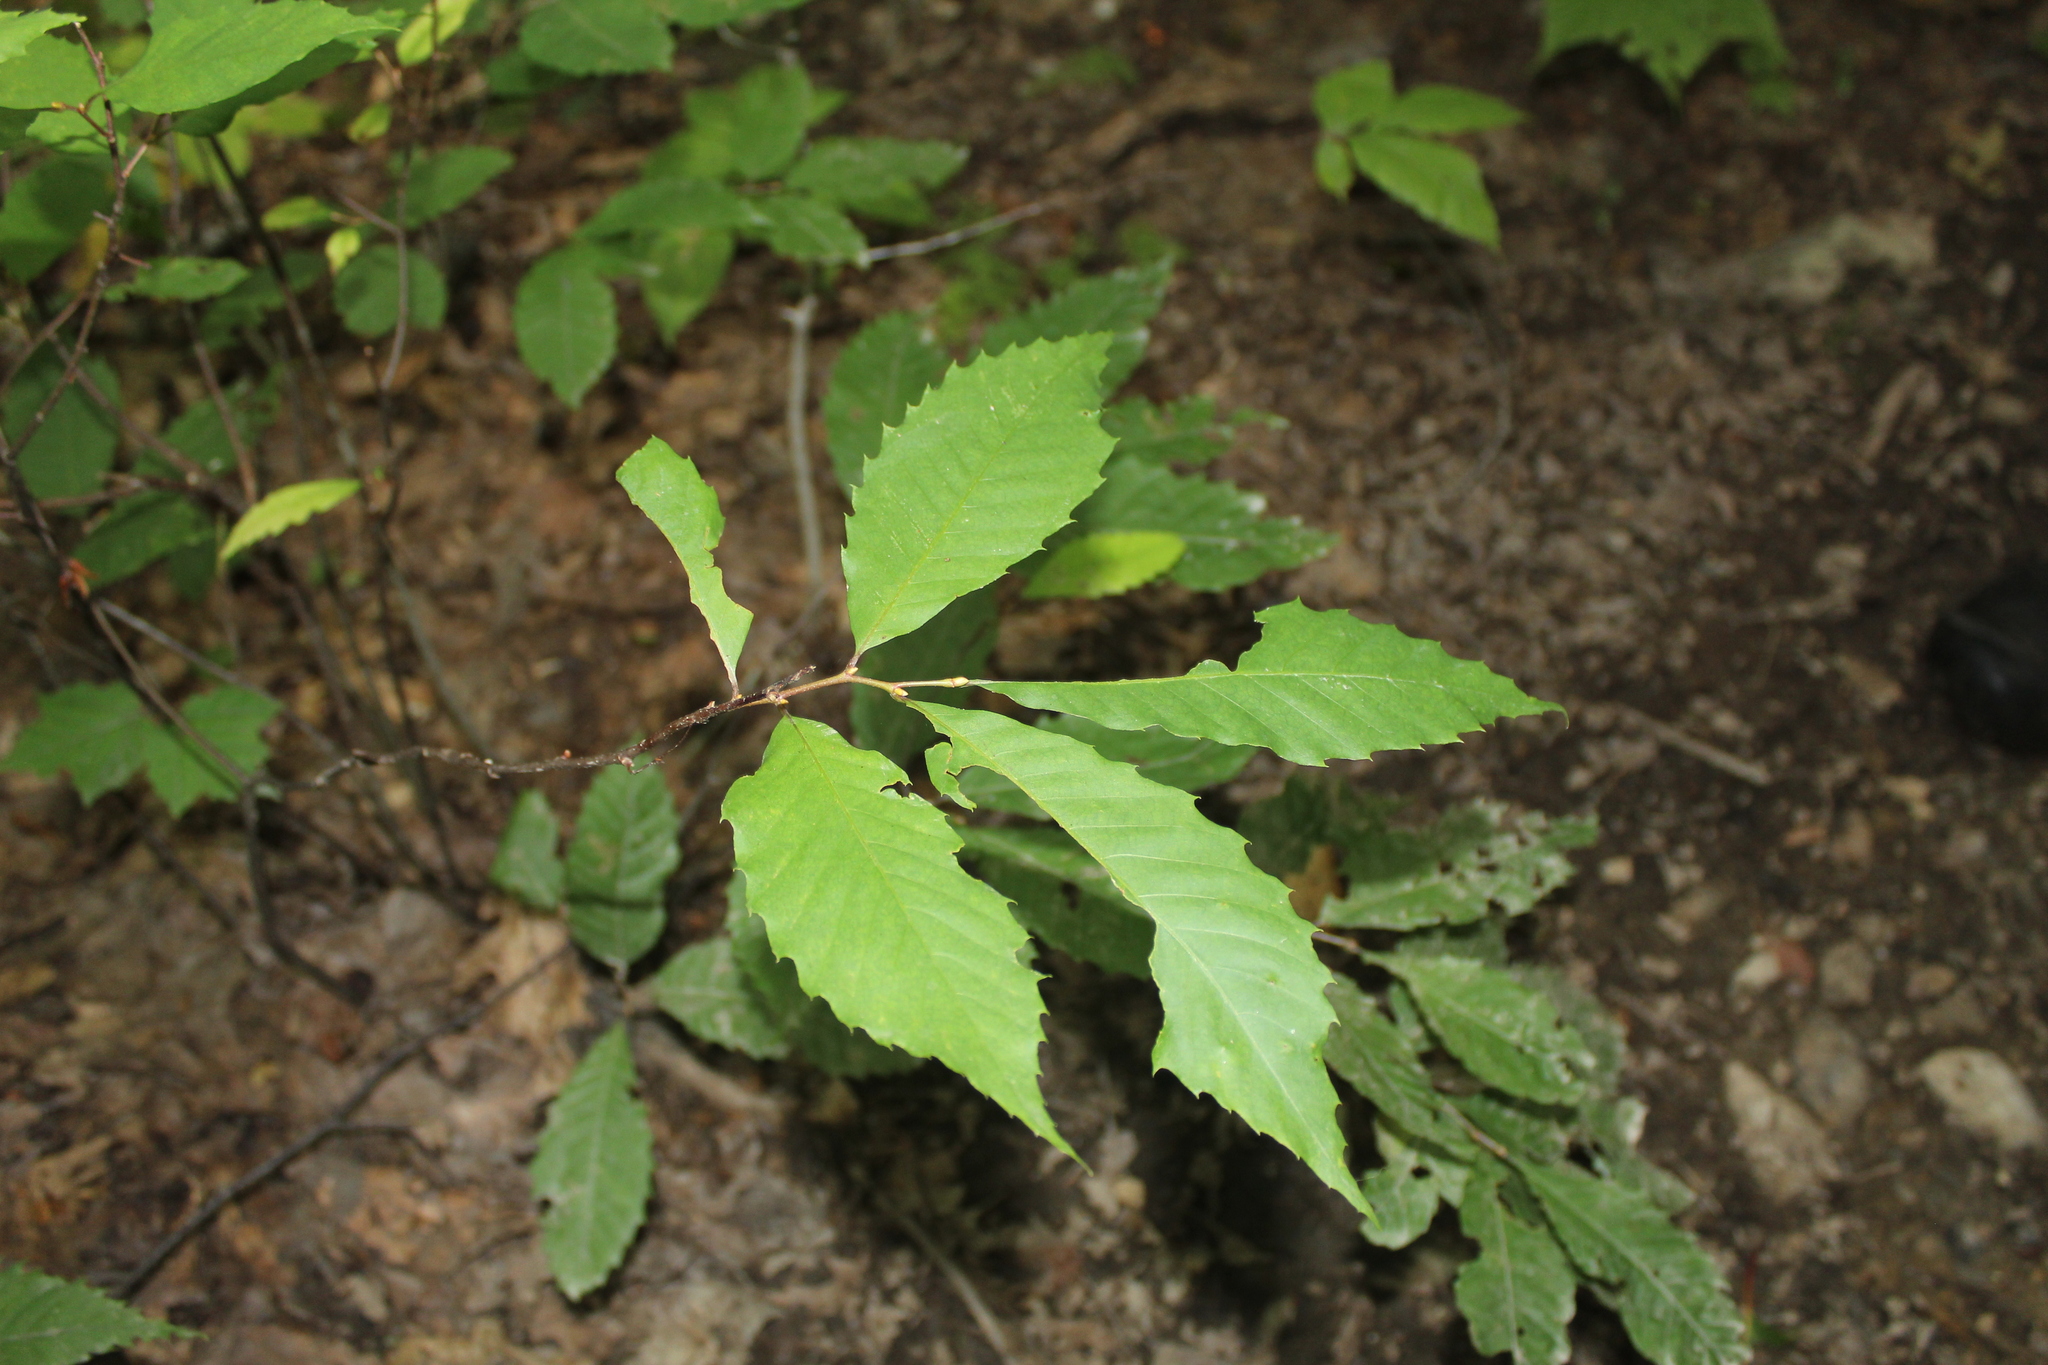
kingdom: Plantae
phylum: Tracheophyta
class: Magnoliopsida
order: Fagales
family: Fagaceae
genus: Castanea
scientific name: Castanea dentata
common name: American chestnut
